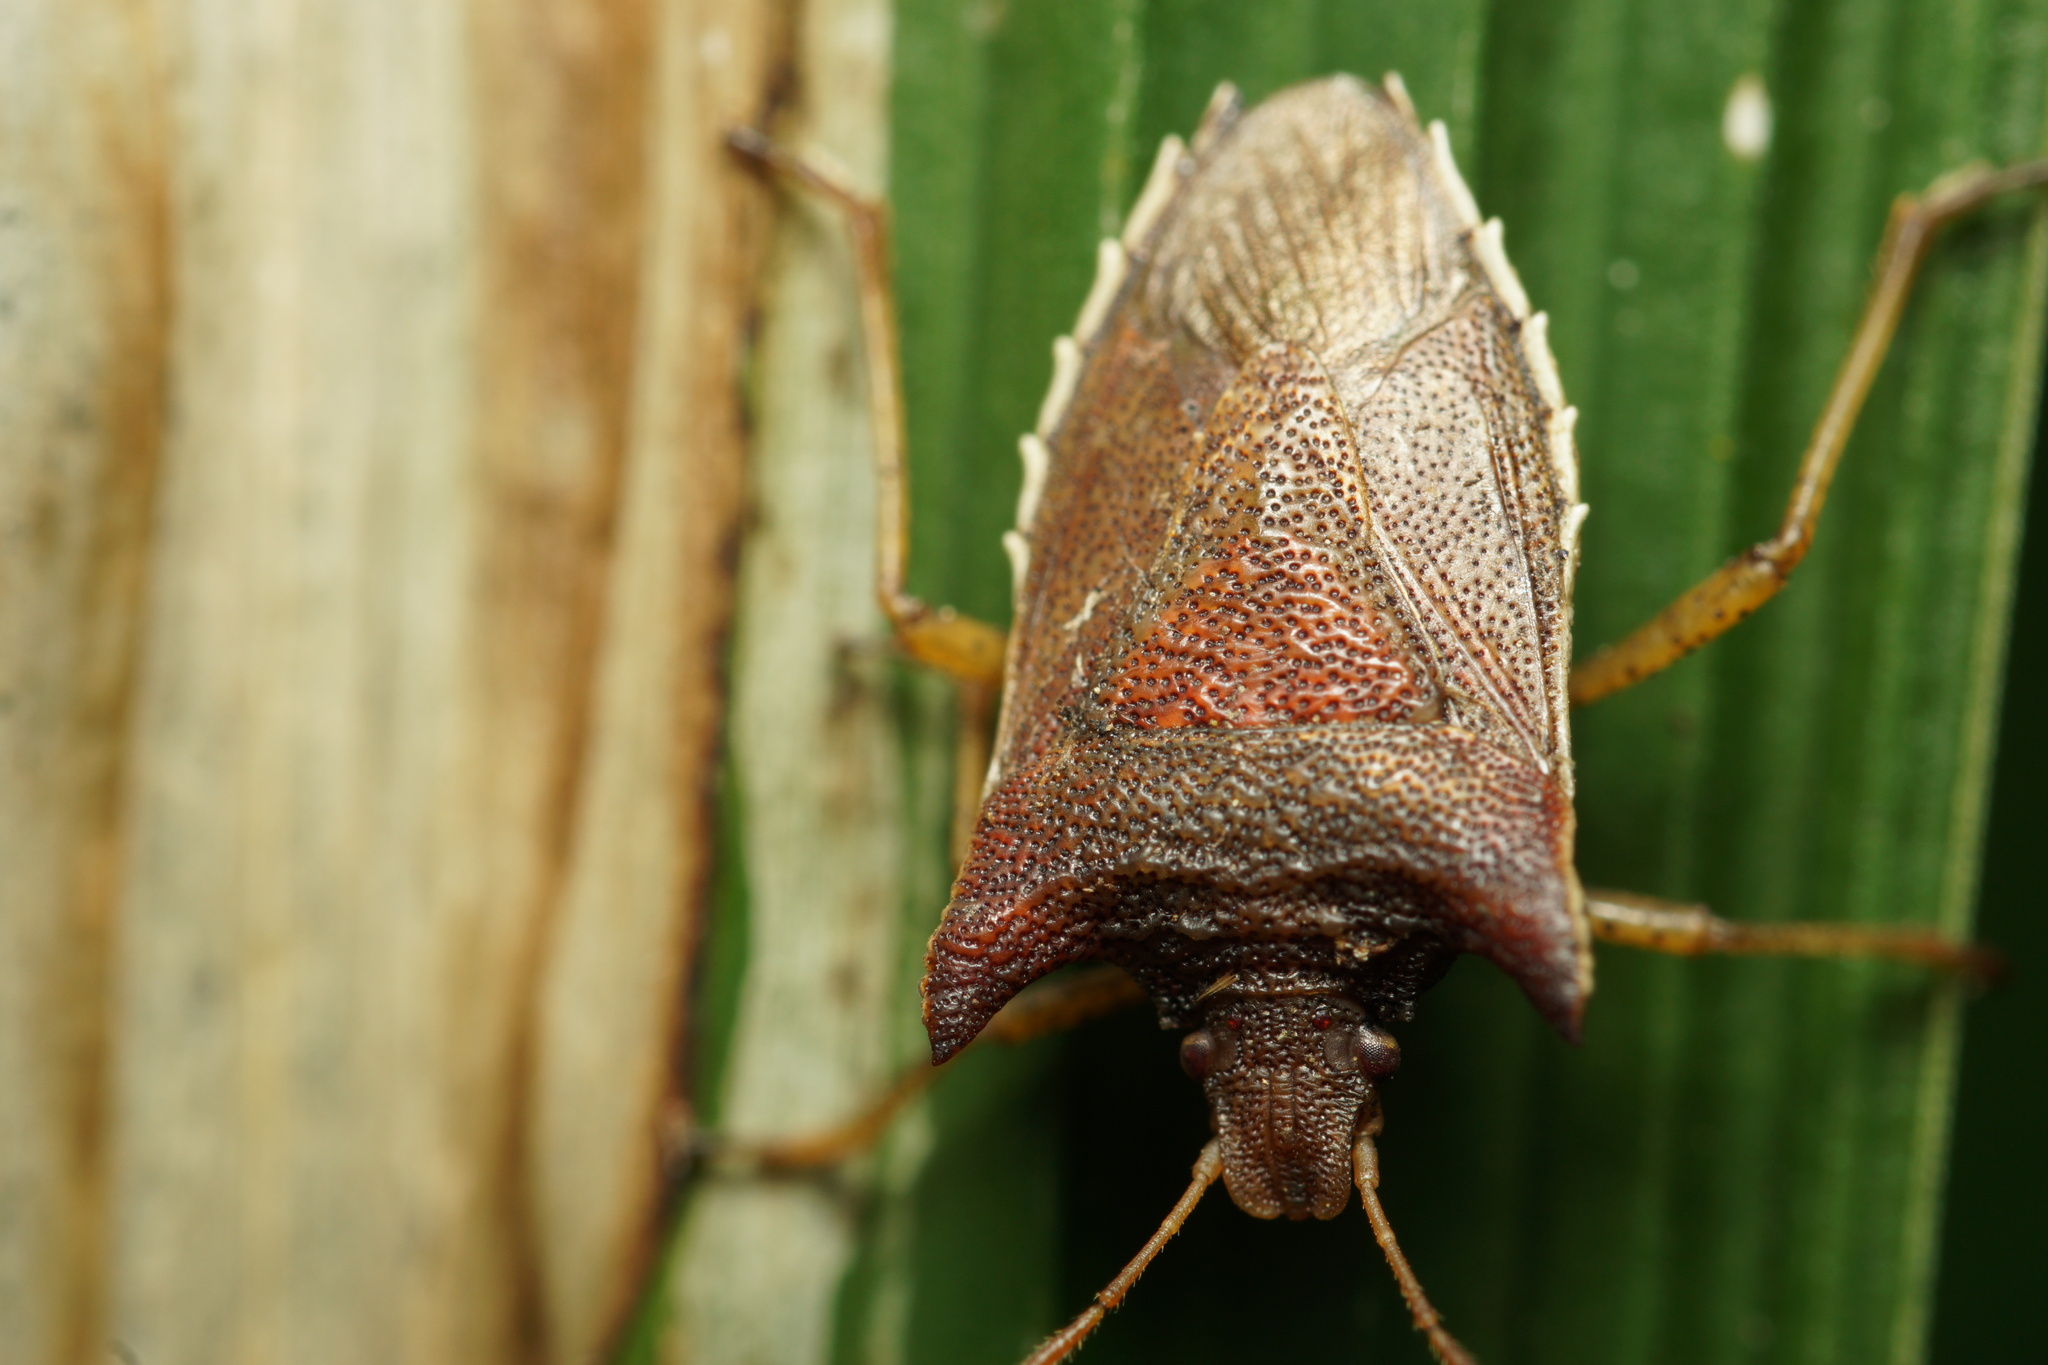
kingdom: Animalia
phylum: Arthropoda
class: Insecta
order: Hemiptera
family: Pentatomidae
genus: Caonabo
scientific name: Caonabo pseudoscylax
